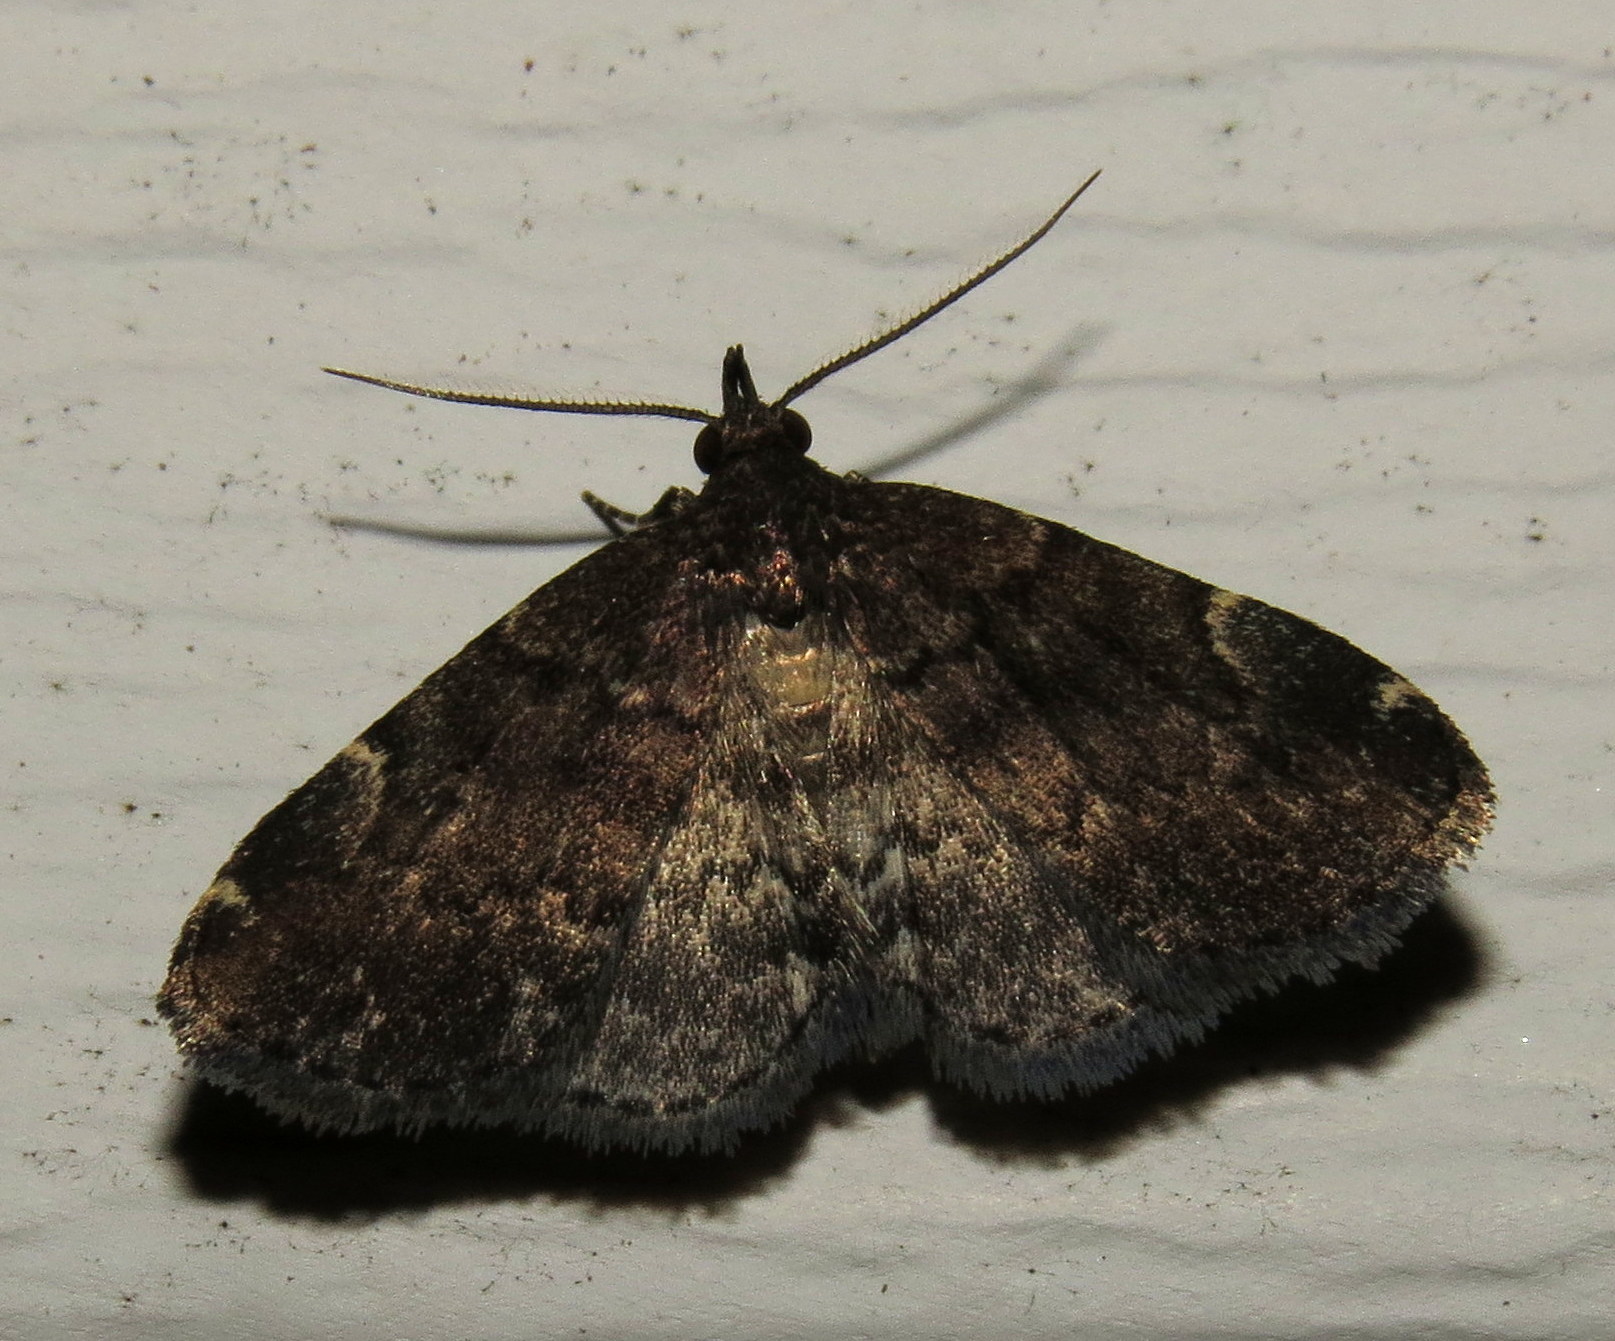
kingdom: Animalia
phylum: Arthropoda
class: Insecta
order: Lepidoptera
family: Erebidae
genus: Idia
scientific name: Idia forbesii
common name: Forbes' idia moth
